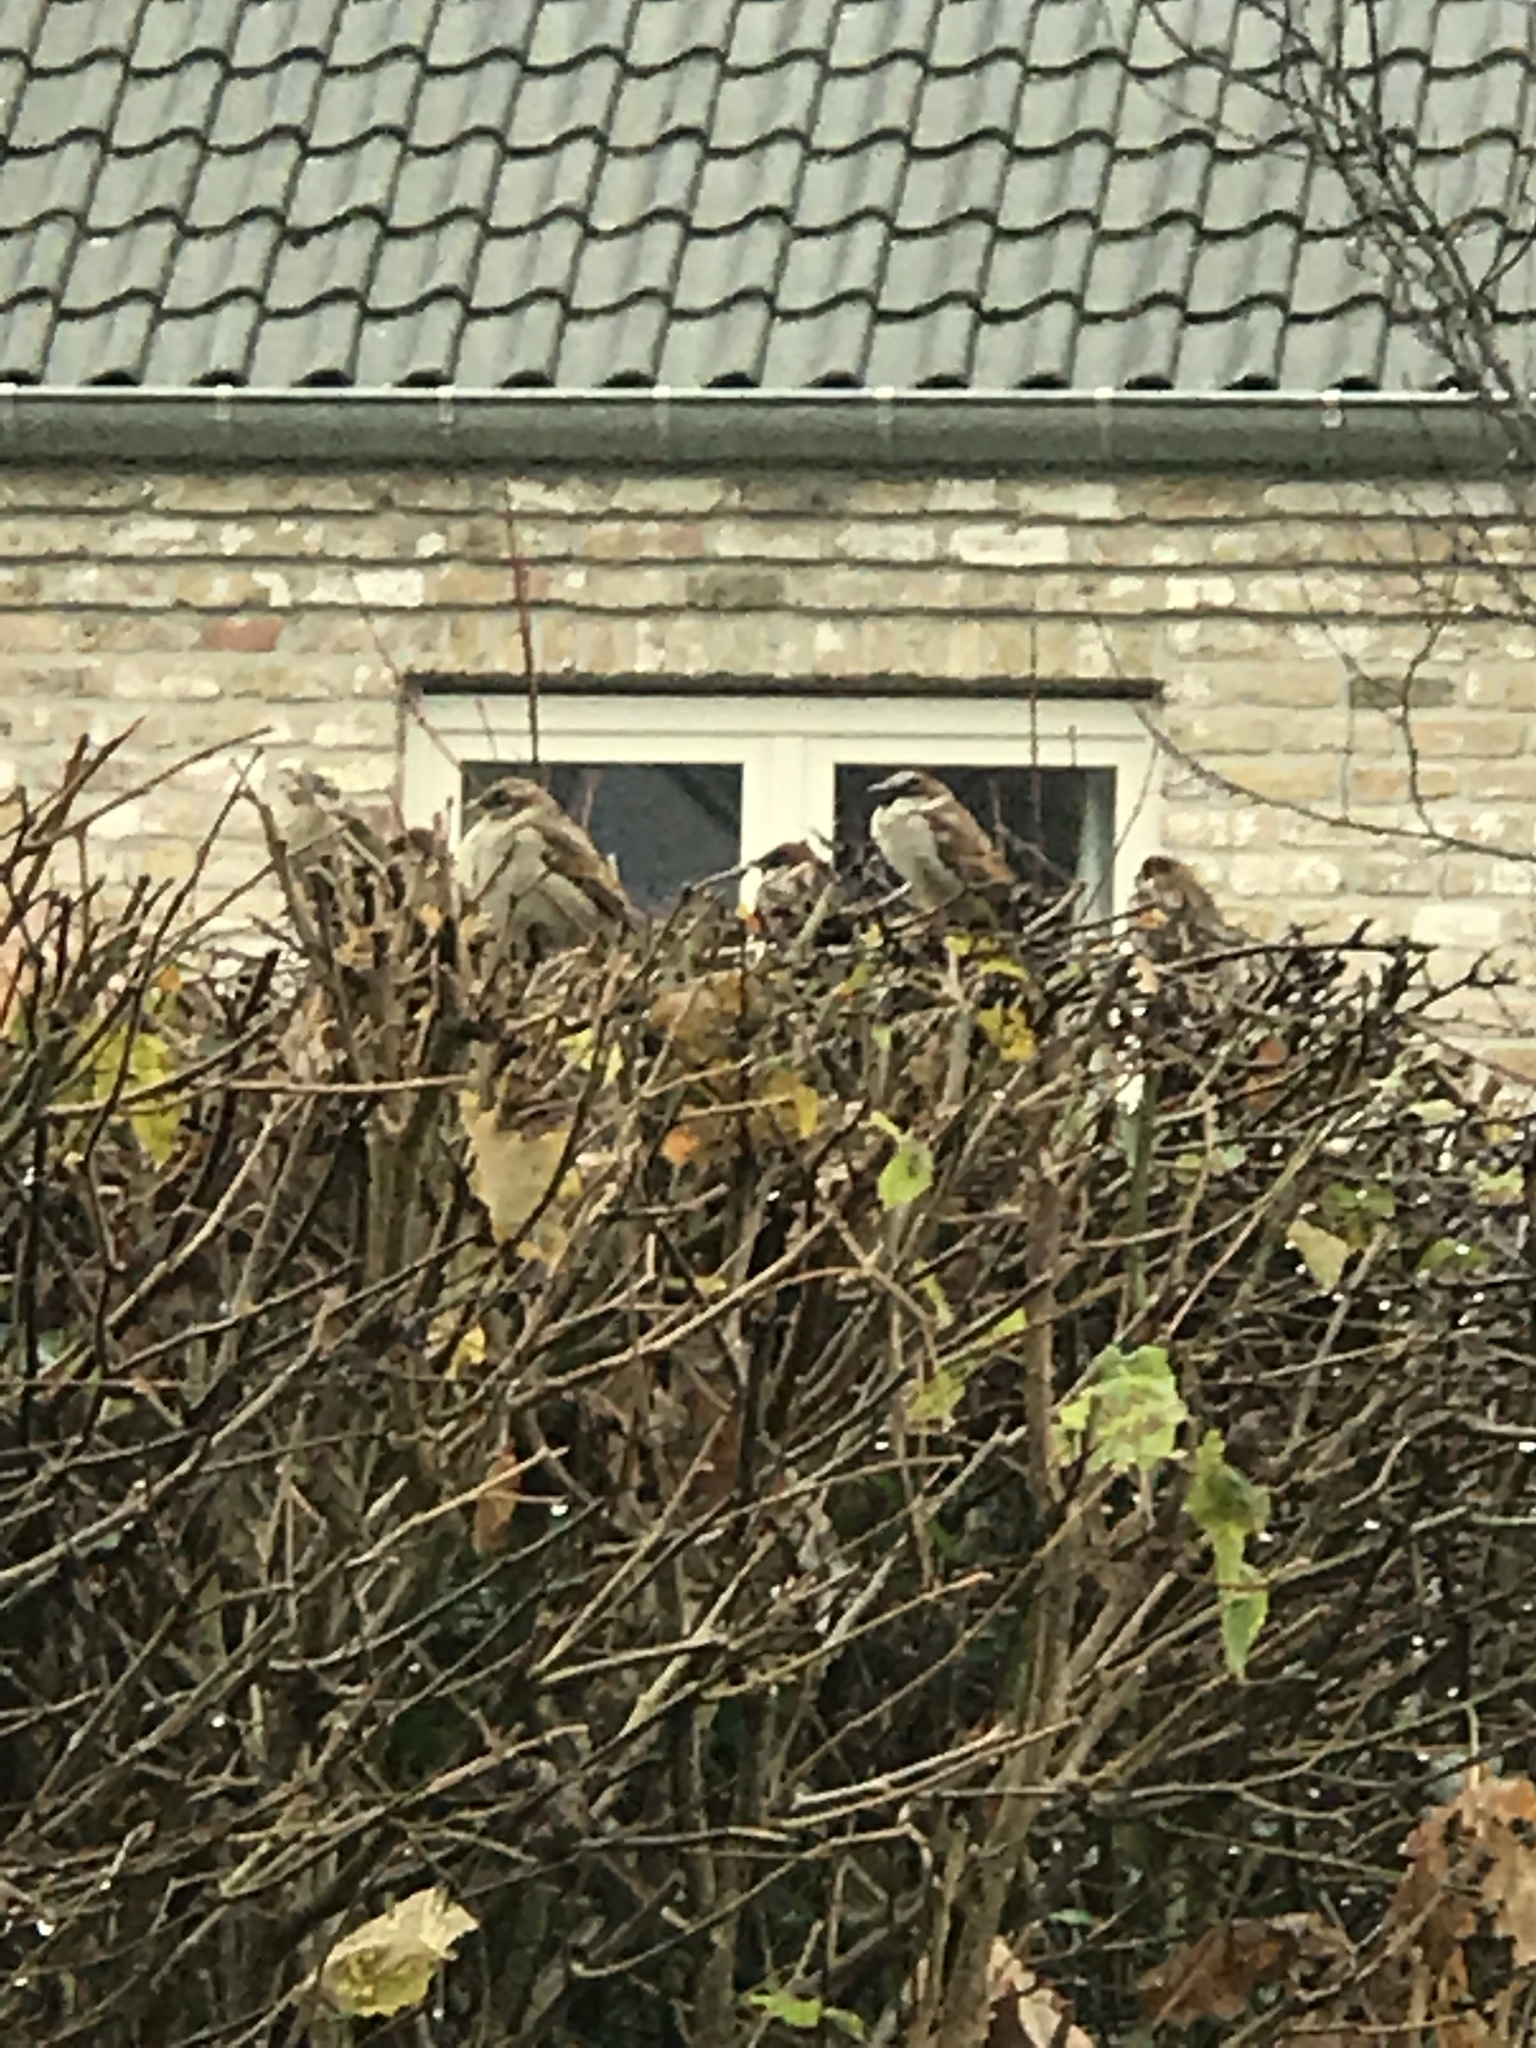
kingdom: Animalia
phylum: Chordata
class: Aves
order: Passeriformes
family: Passeridae
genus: Passer
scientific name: Passer domesticus
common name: House sparrow
